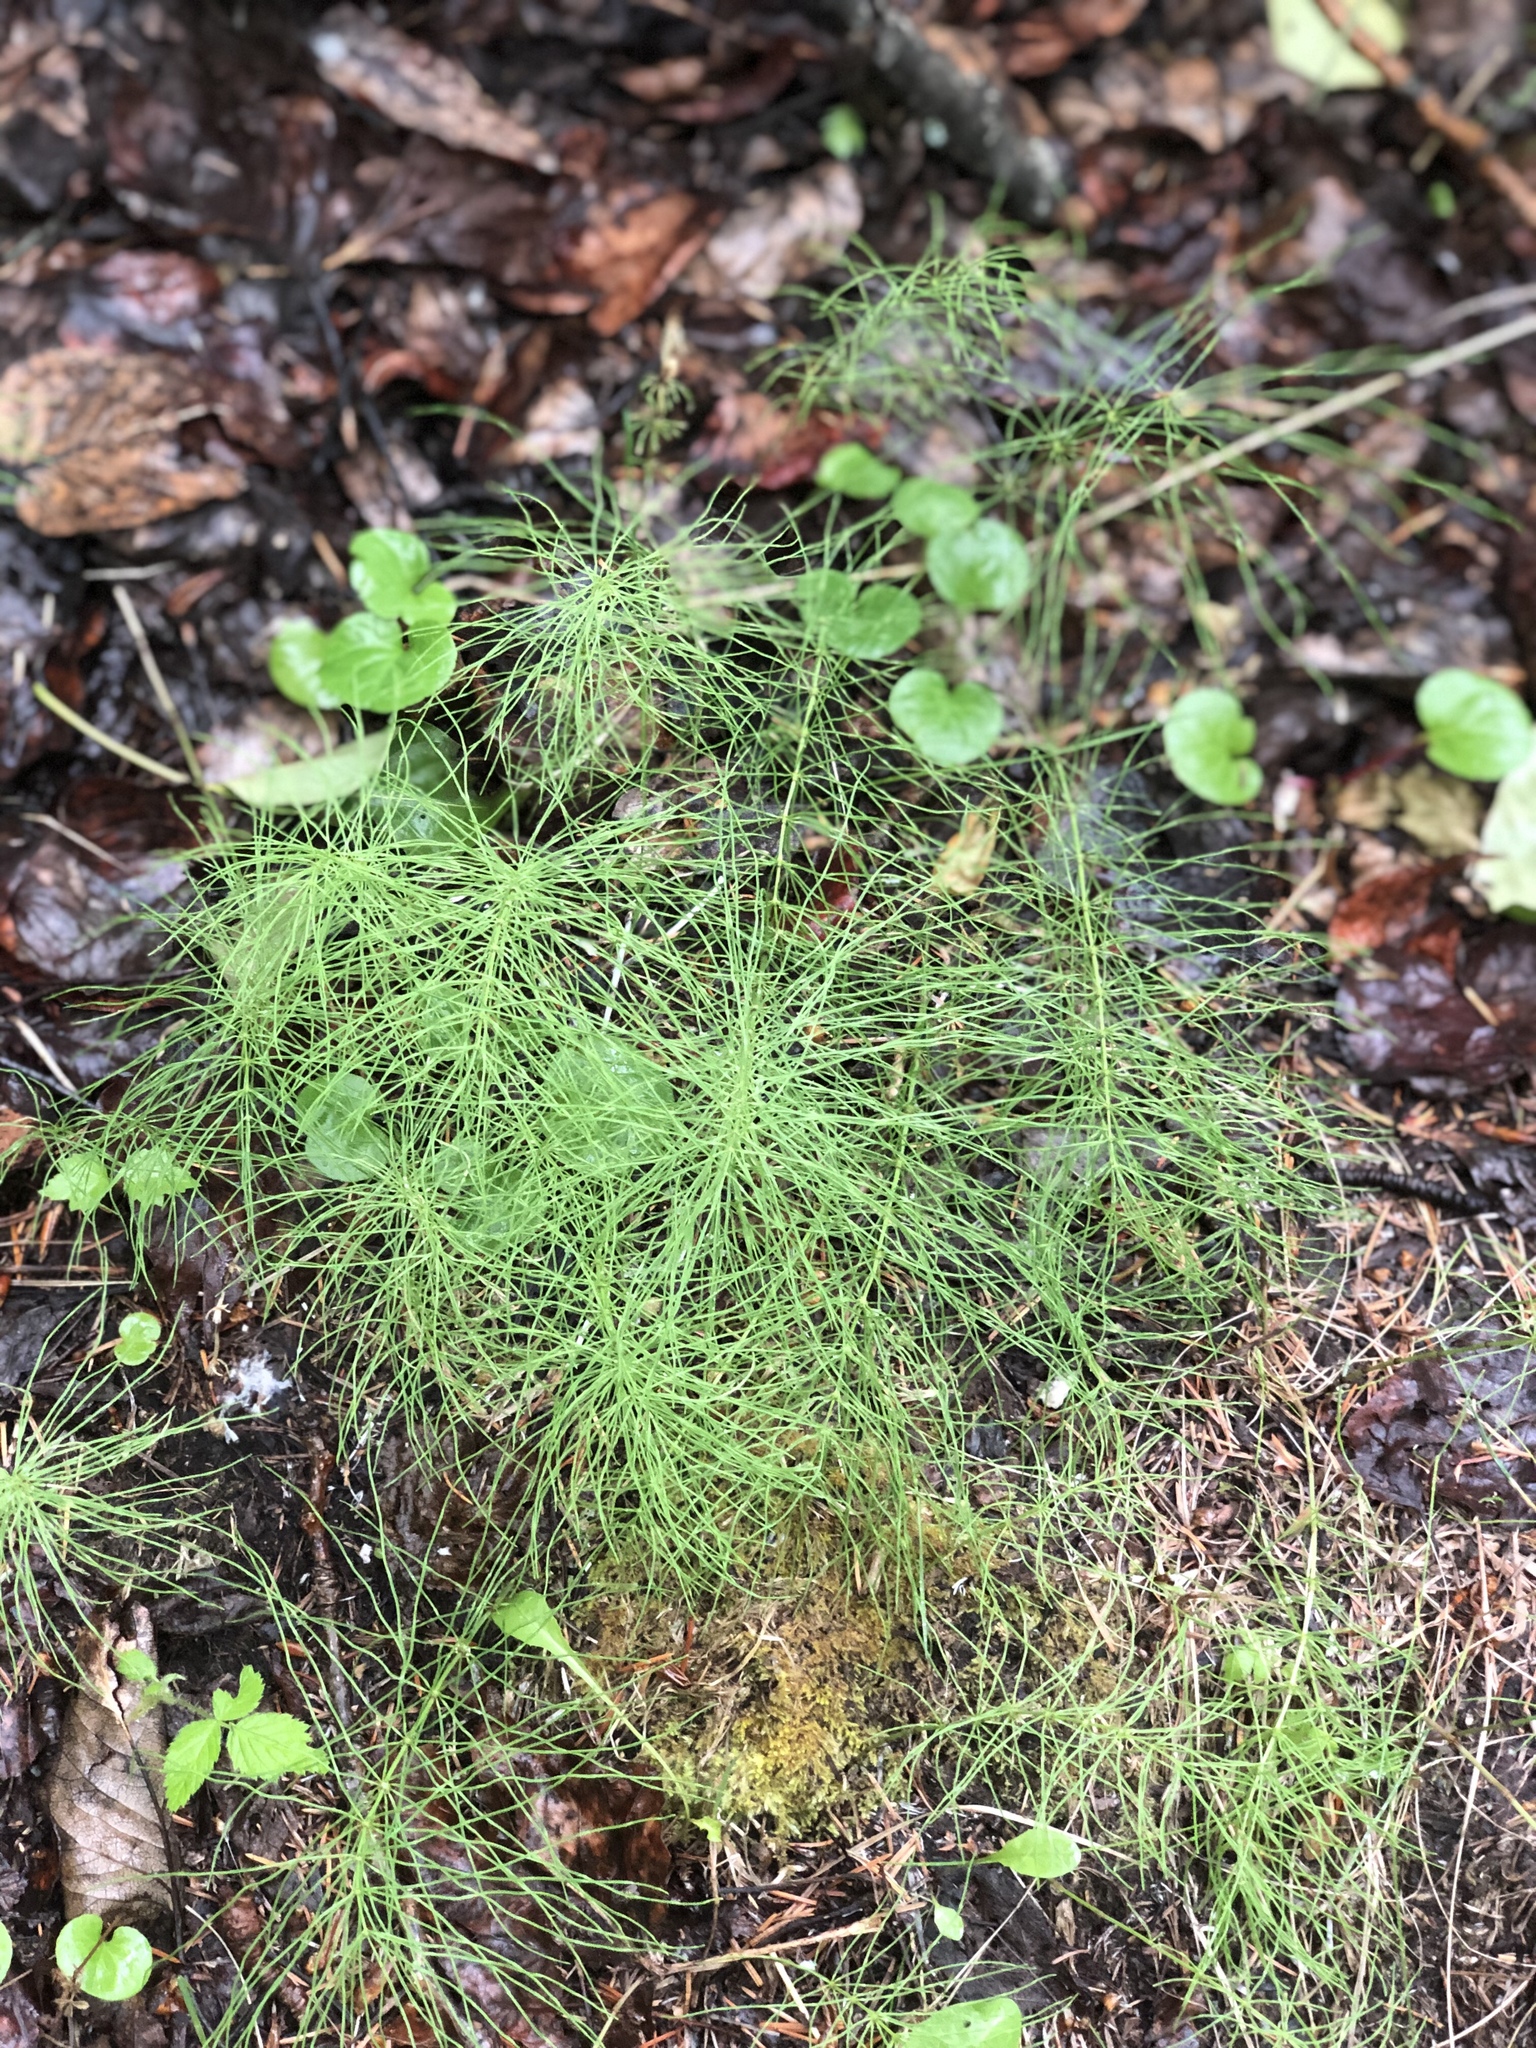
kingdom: Plantae
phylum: Tracheophyta
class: Polypodiopsida
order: Equisetales
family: Equisetaceae
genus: Equisetum
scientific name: Equisetum arvense
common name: Field horsetail
